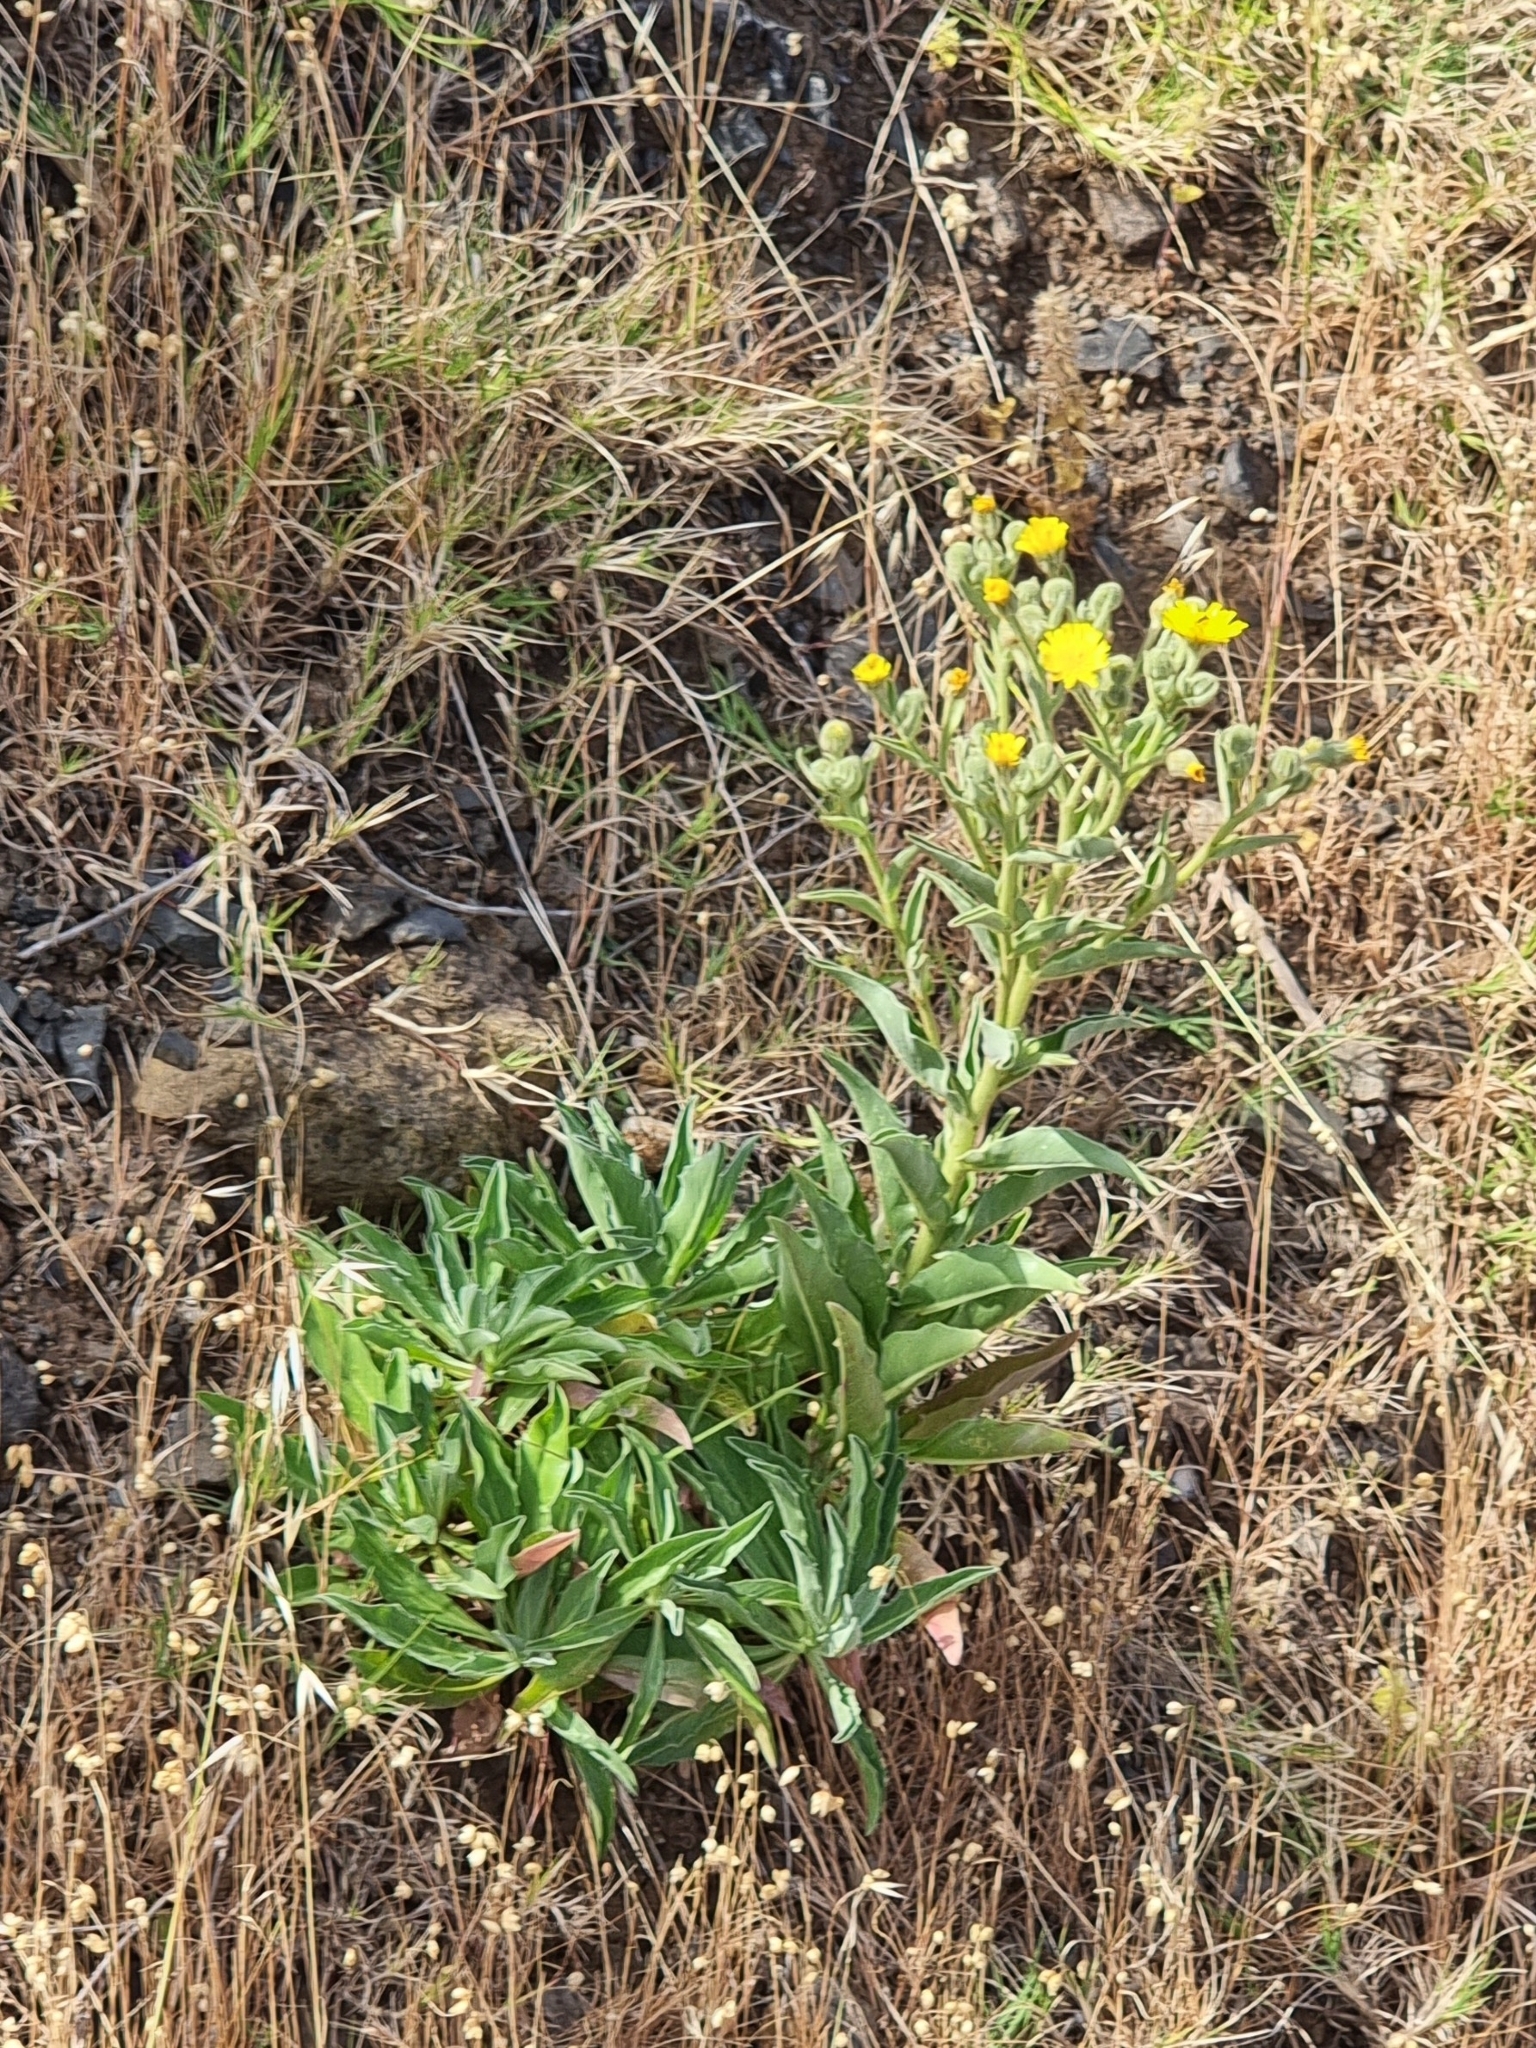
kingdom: Plantae
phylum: Tracheophyta
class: Magnoliopsida
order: Asterales
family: Asteraceae
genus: Andryala
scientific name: Andryala glandulosa
